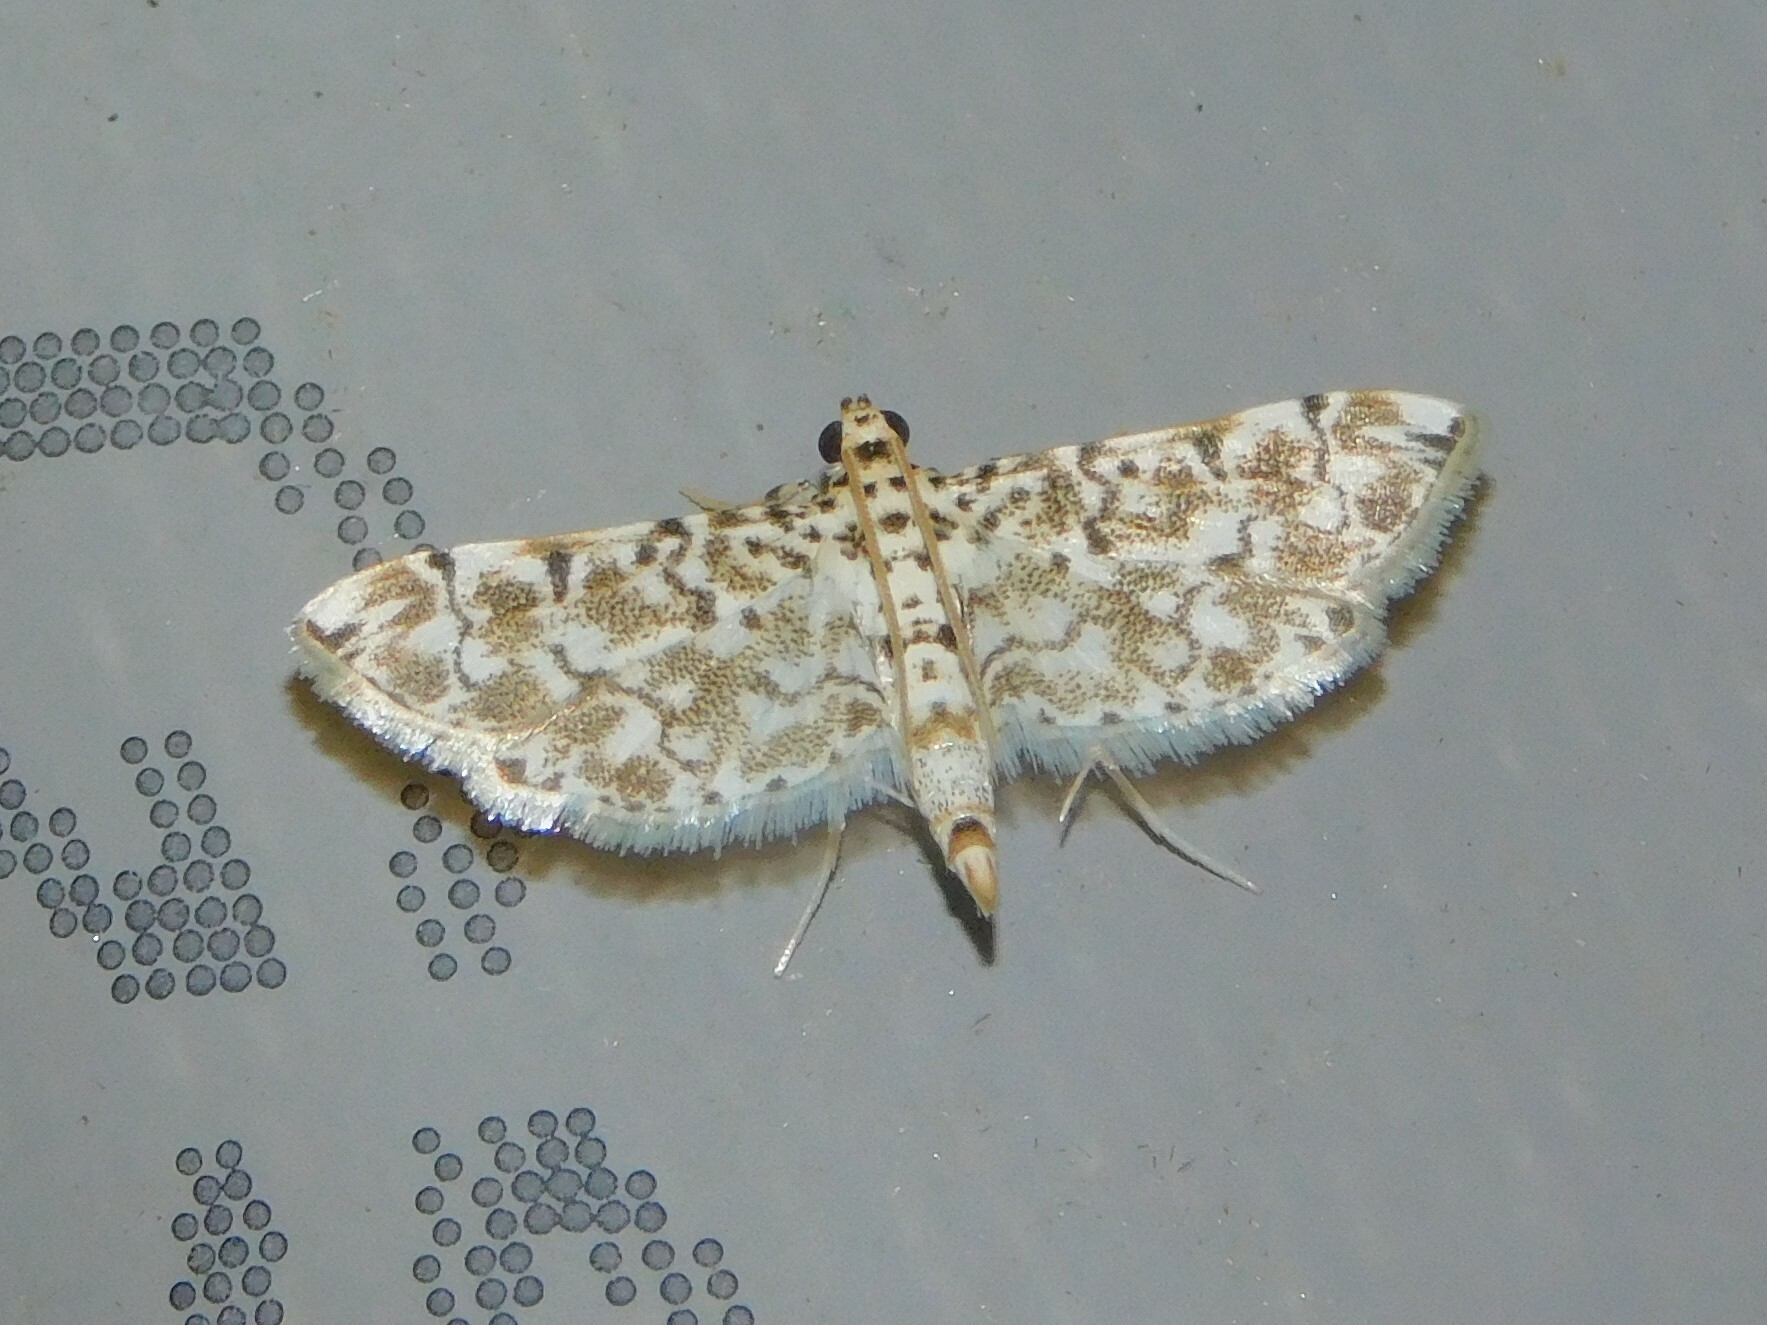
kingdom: Animalia
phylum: Arthropoda
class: Insecta
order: Lepidoptera
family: Crambidae
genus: Metoeca
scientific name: Metoeca foedalis
